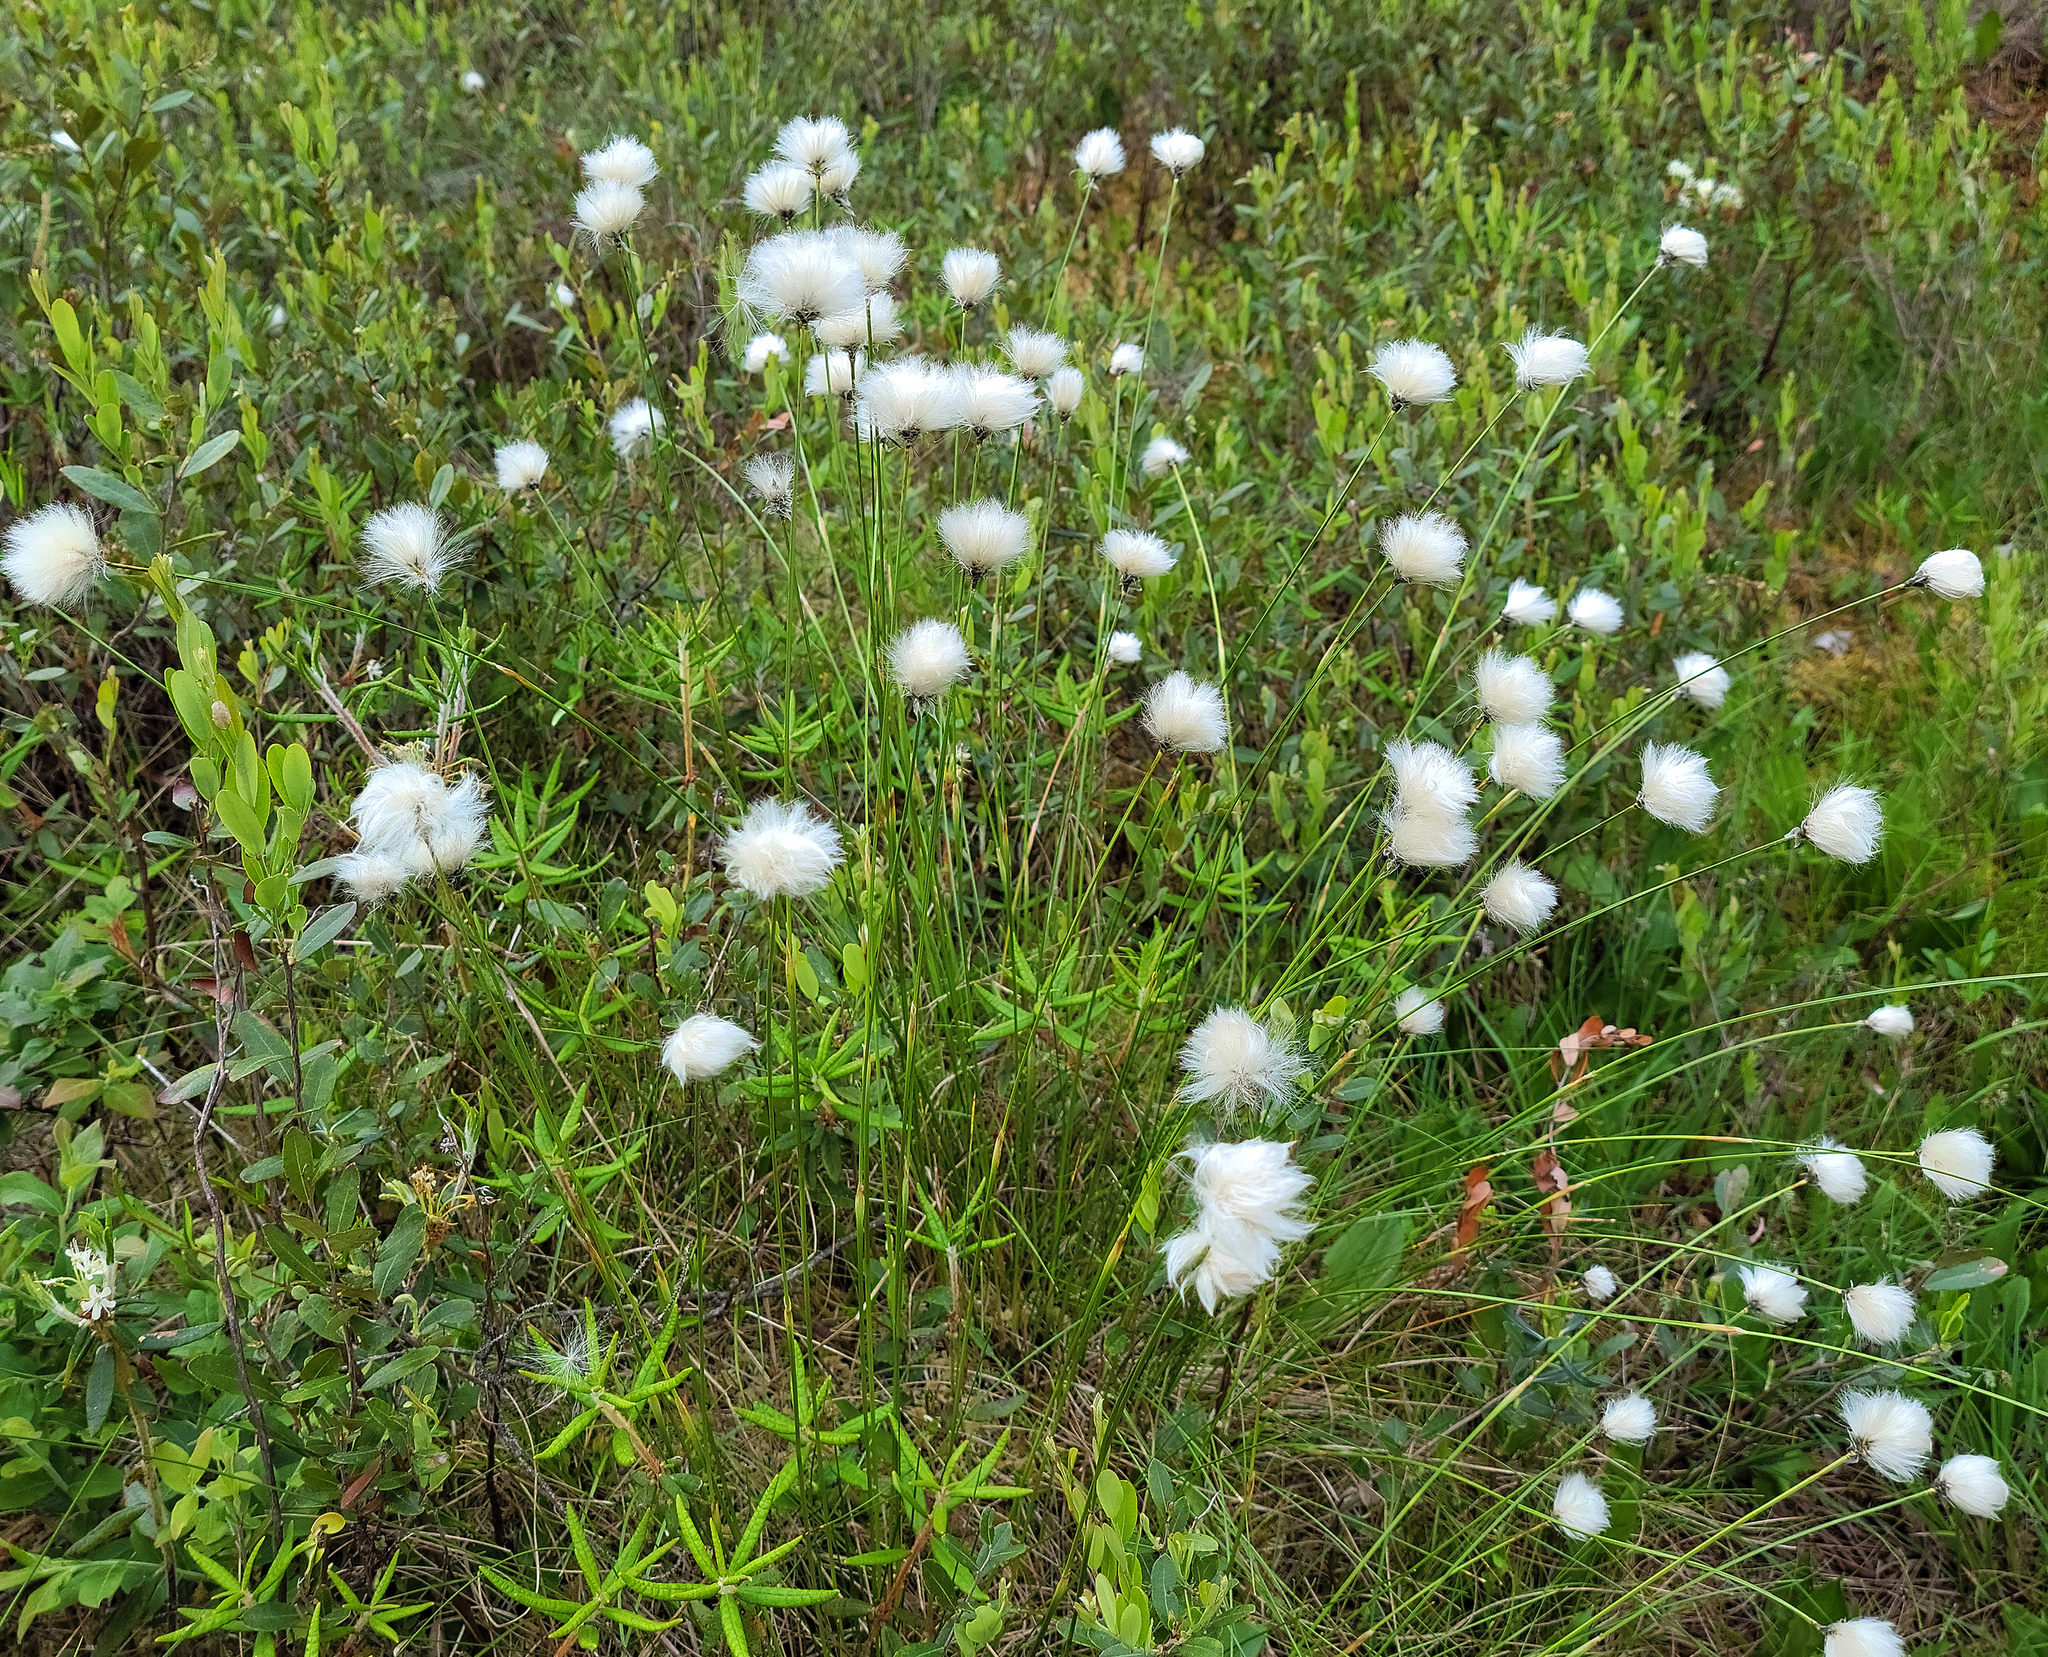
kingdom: Plantae
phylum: Tracheophyta
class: Liliopsida
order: Poales
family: Cyperaceae
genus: Eriophorum
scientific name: Eriophorum vaginatum
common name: Hare's-tail cottongrass
